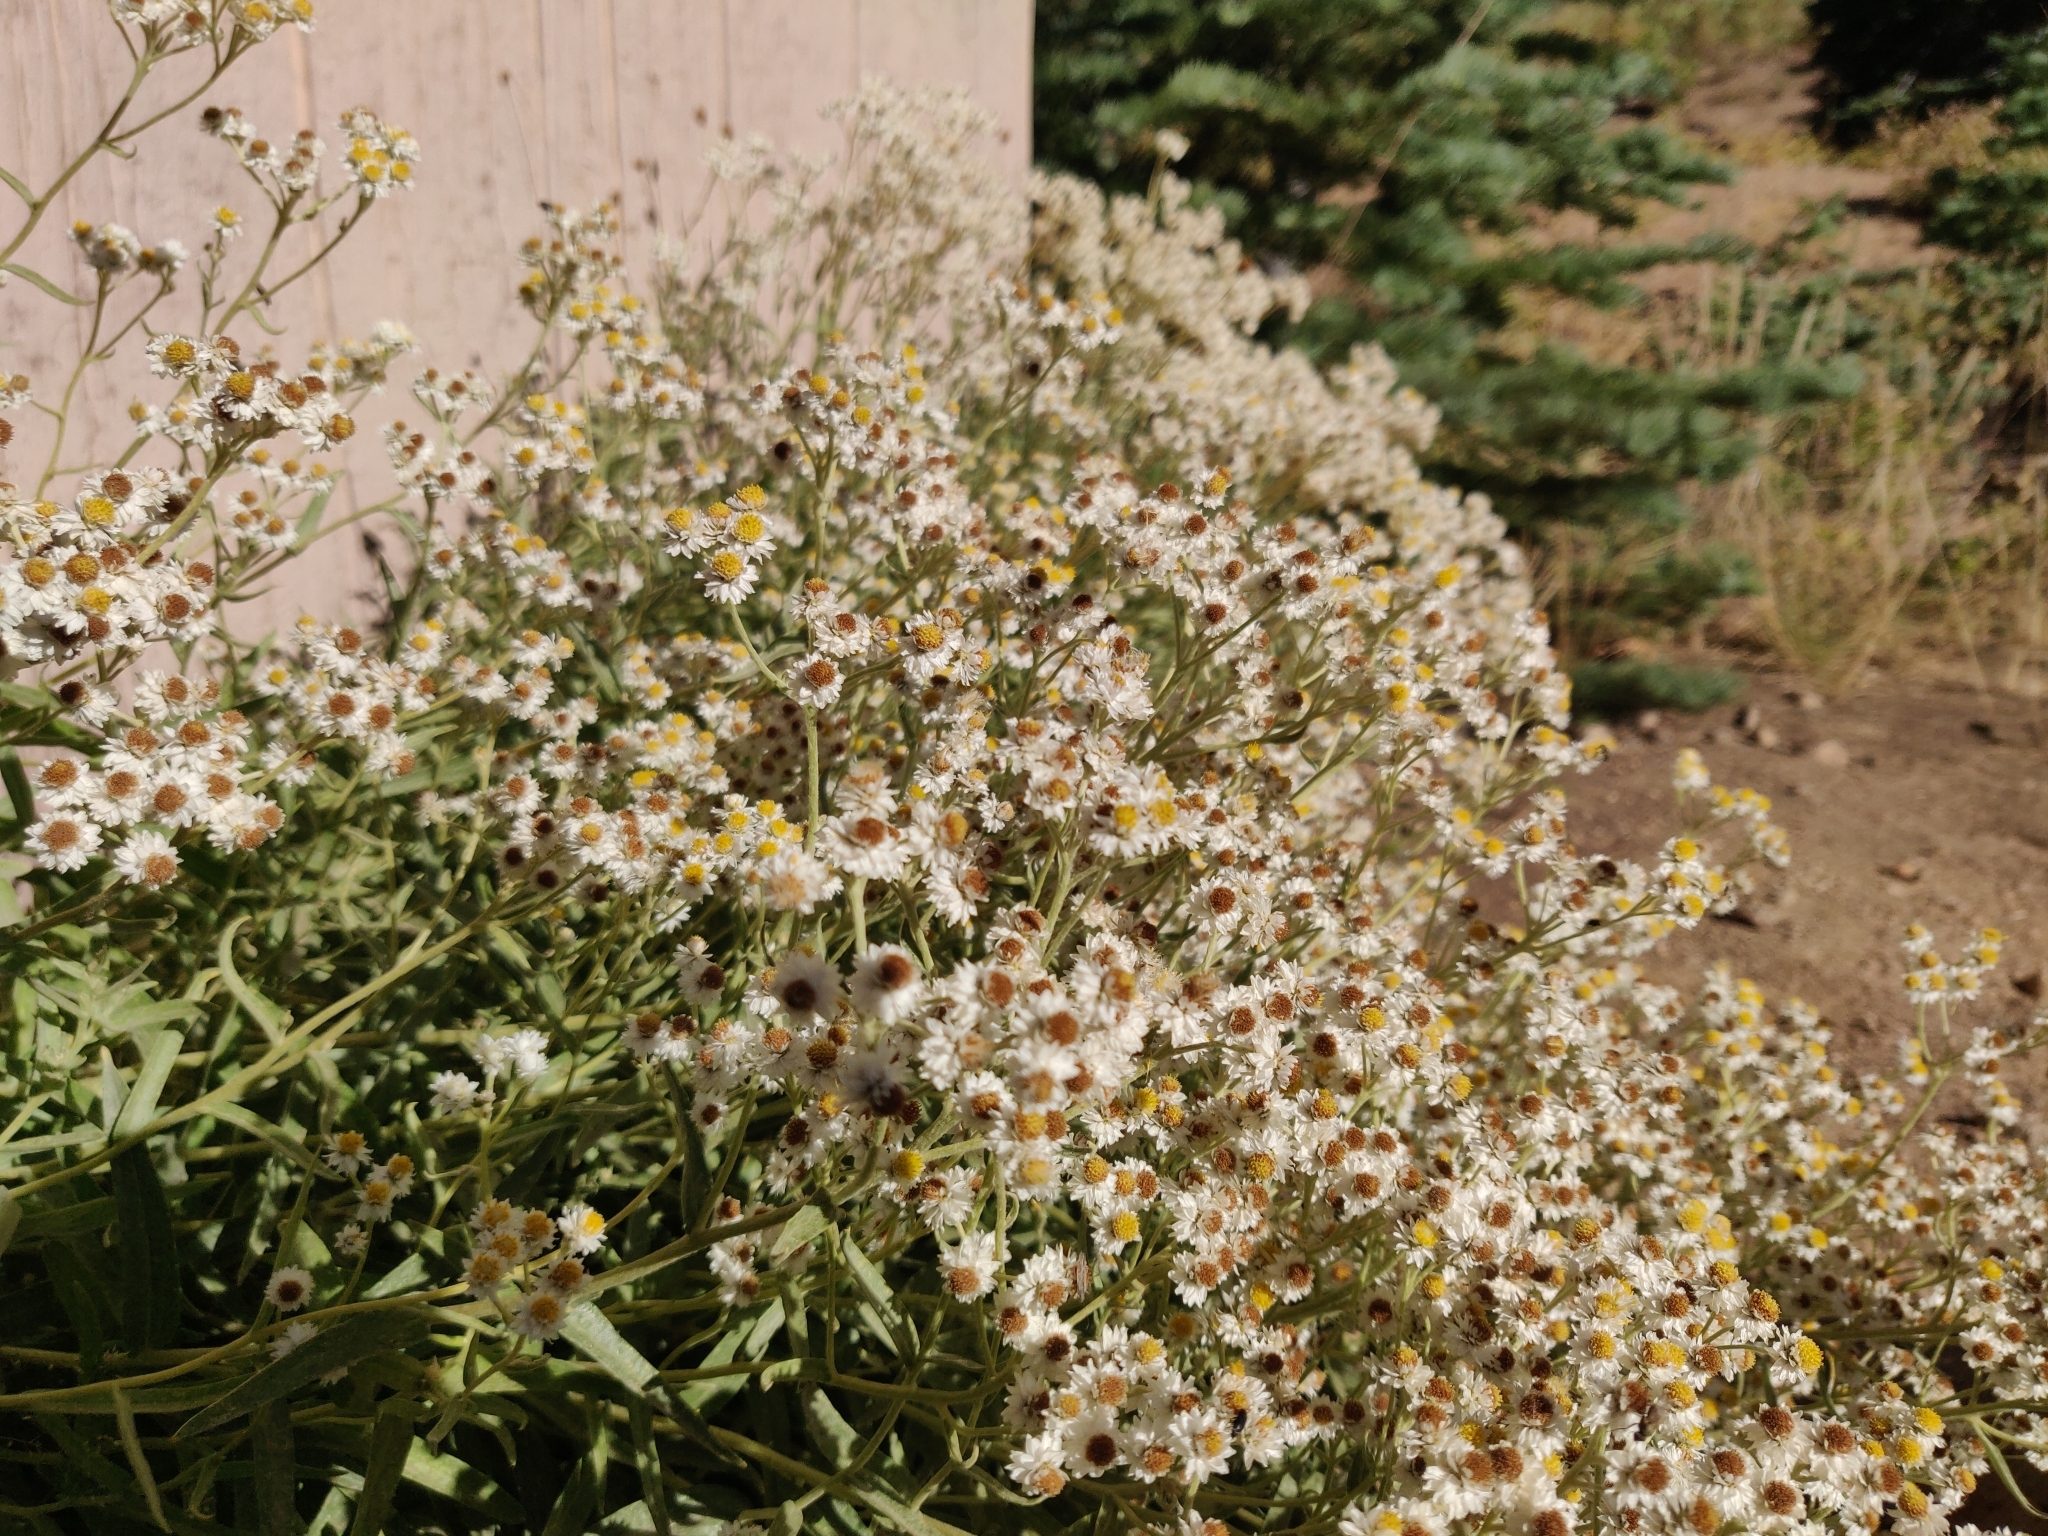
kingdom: Plantae
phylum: Tracheophyta
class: Magnoliopsida
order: Asterales
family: Asteraceae
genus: Anaphalis
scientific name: Anaphalis margaritacea
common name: Pearly everlasting
